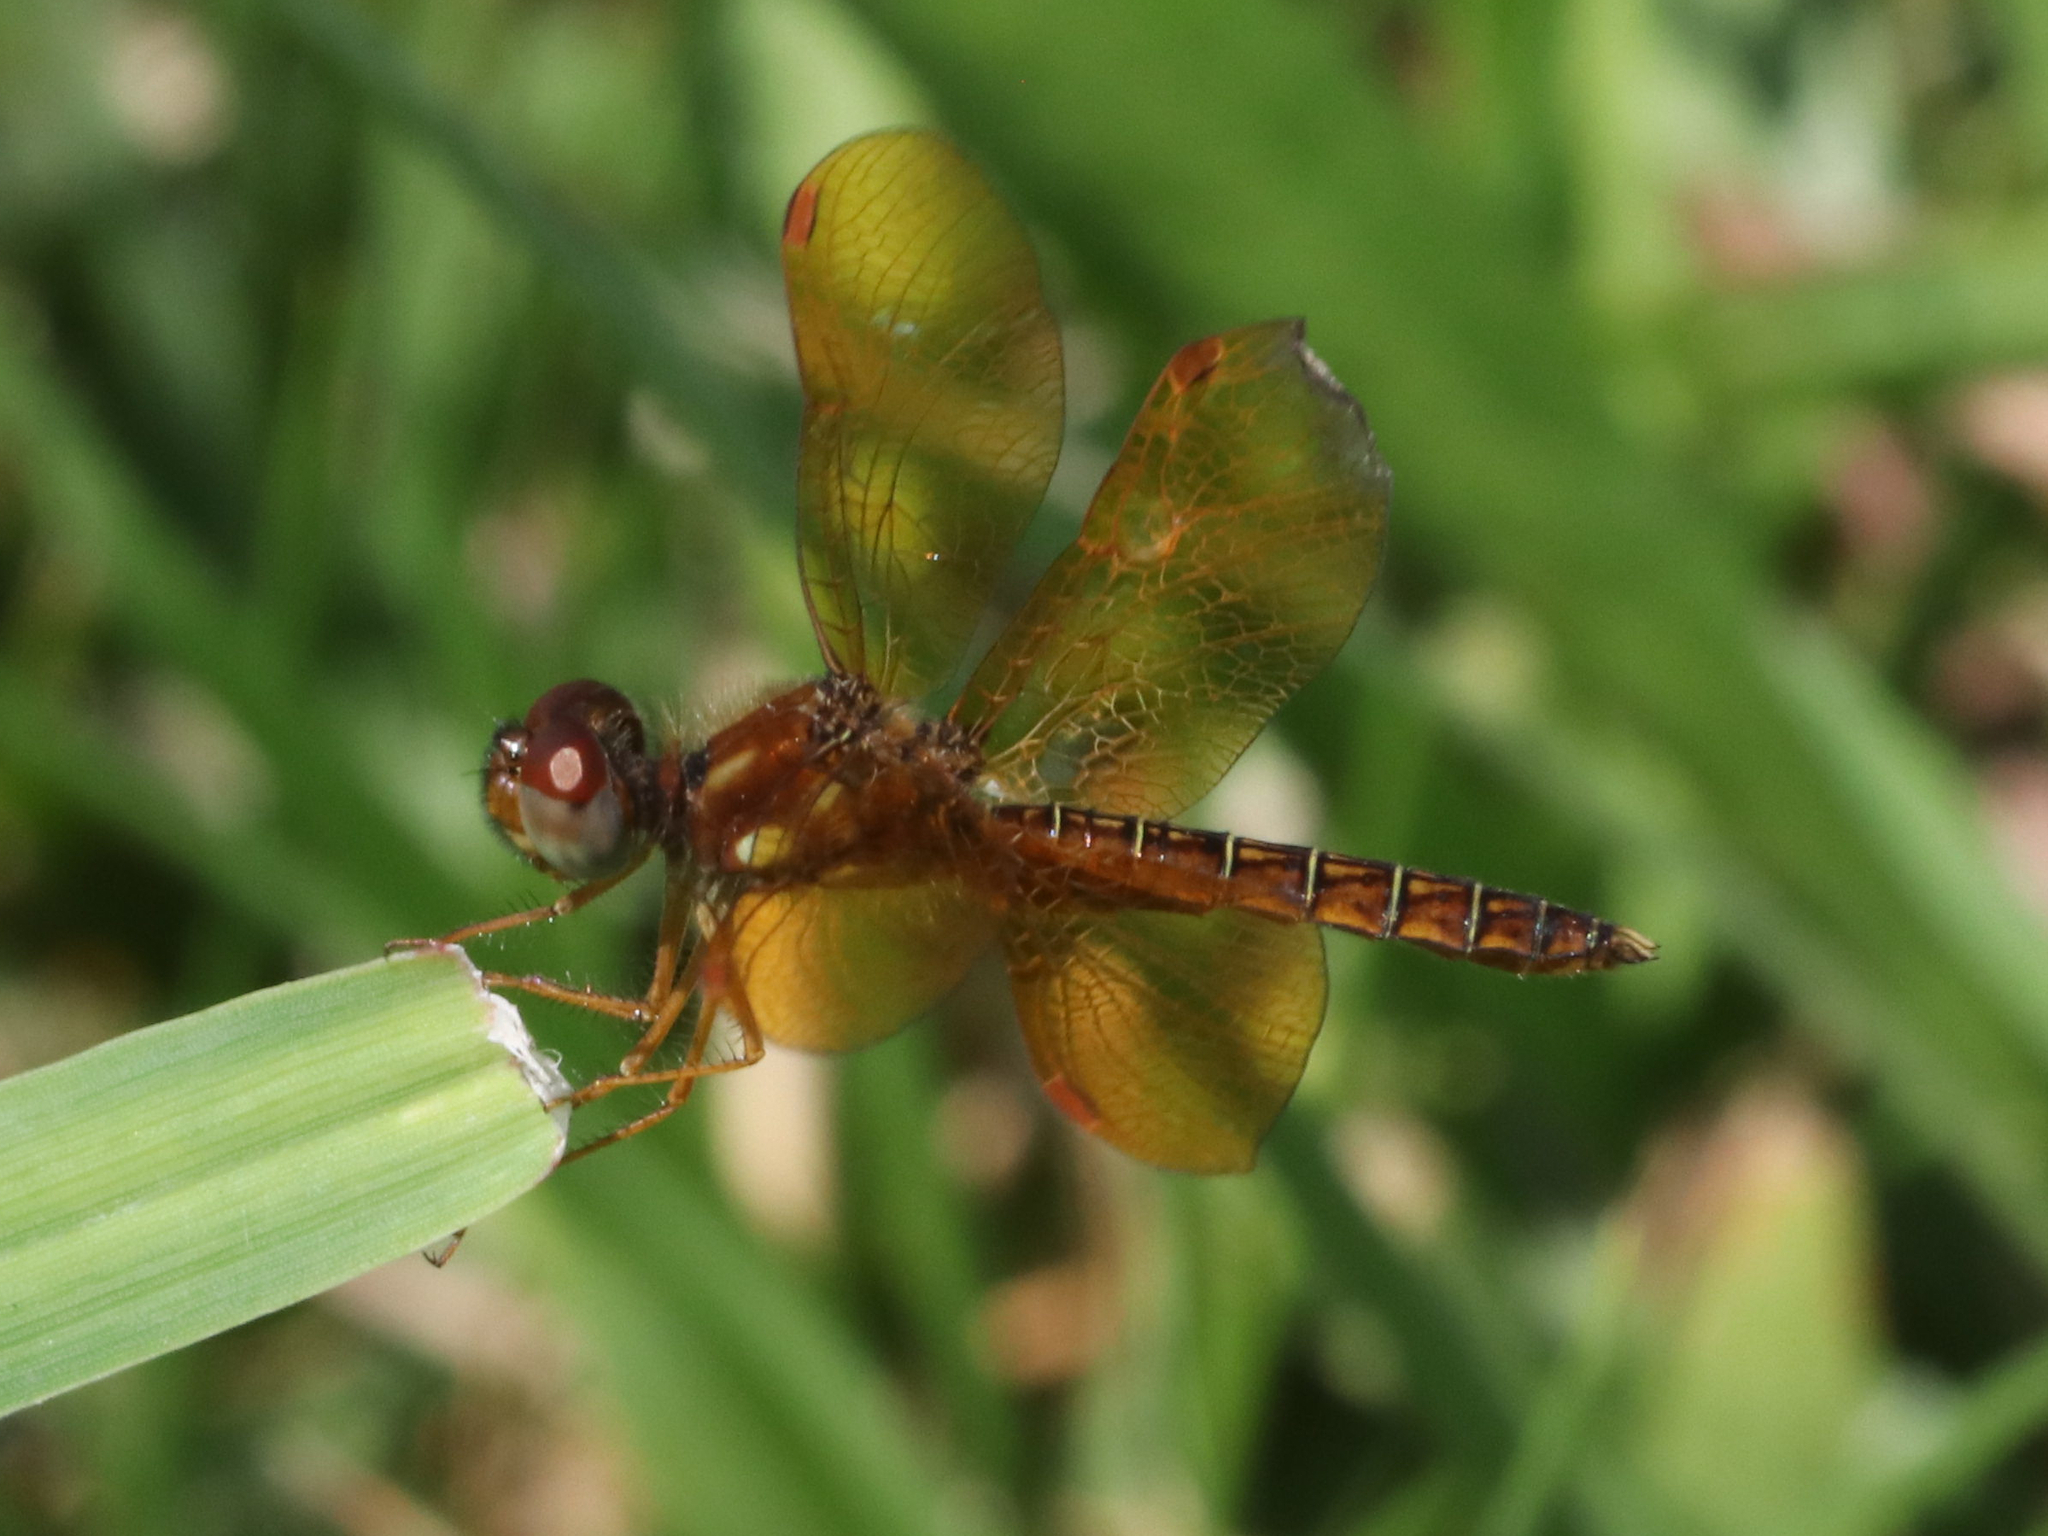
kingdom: Animalia
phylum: Arthropoda
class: Insecta
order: Odonata
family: Libellulidae
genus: Perithemis
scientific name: Perithemis tenera
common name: Eastern amberwing
